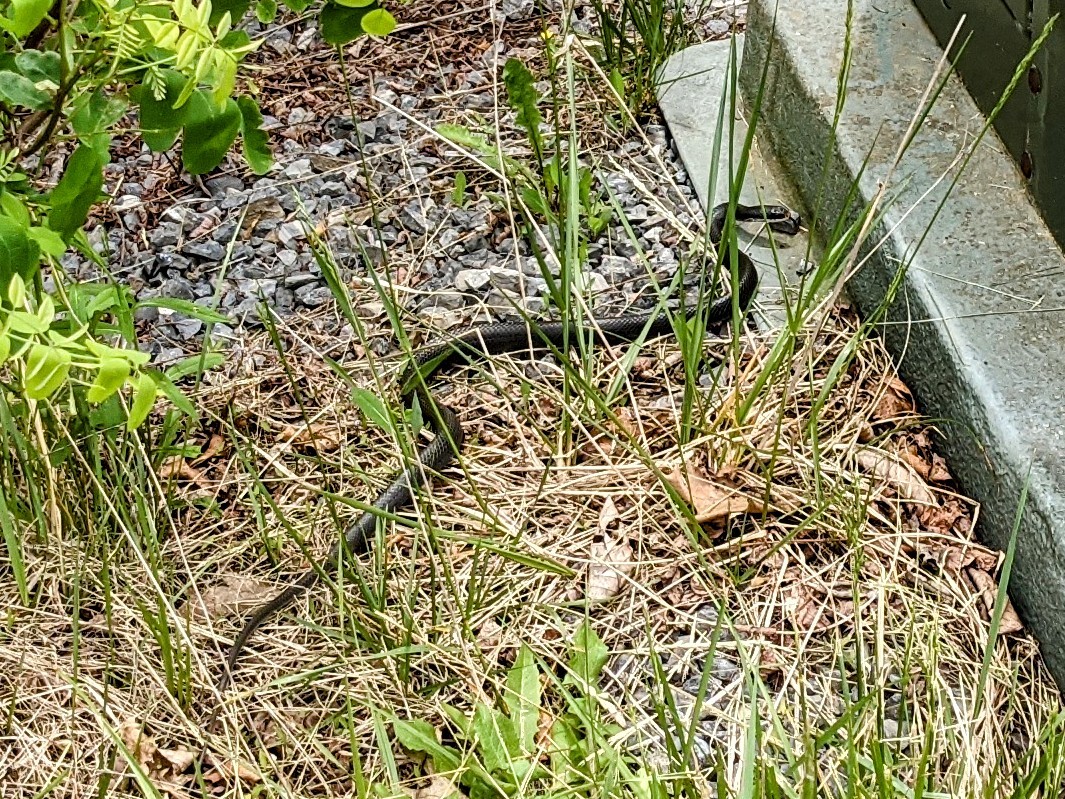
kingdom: Animalia
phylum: Chordata
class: Squamata
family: Colubridae
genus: Coluber
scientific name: Coluber constrictor
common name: Eastern racer
